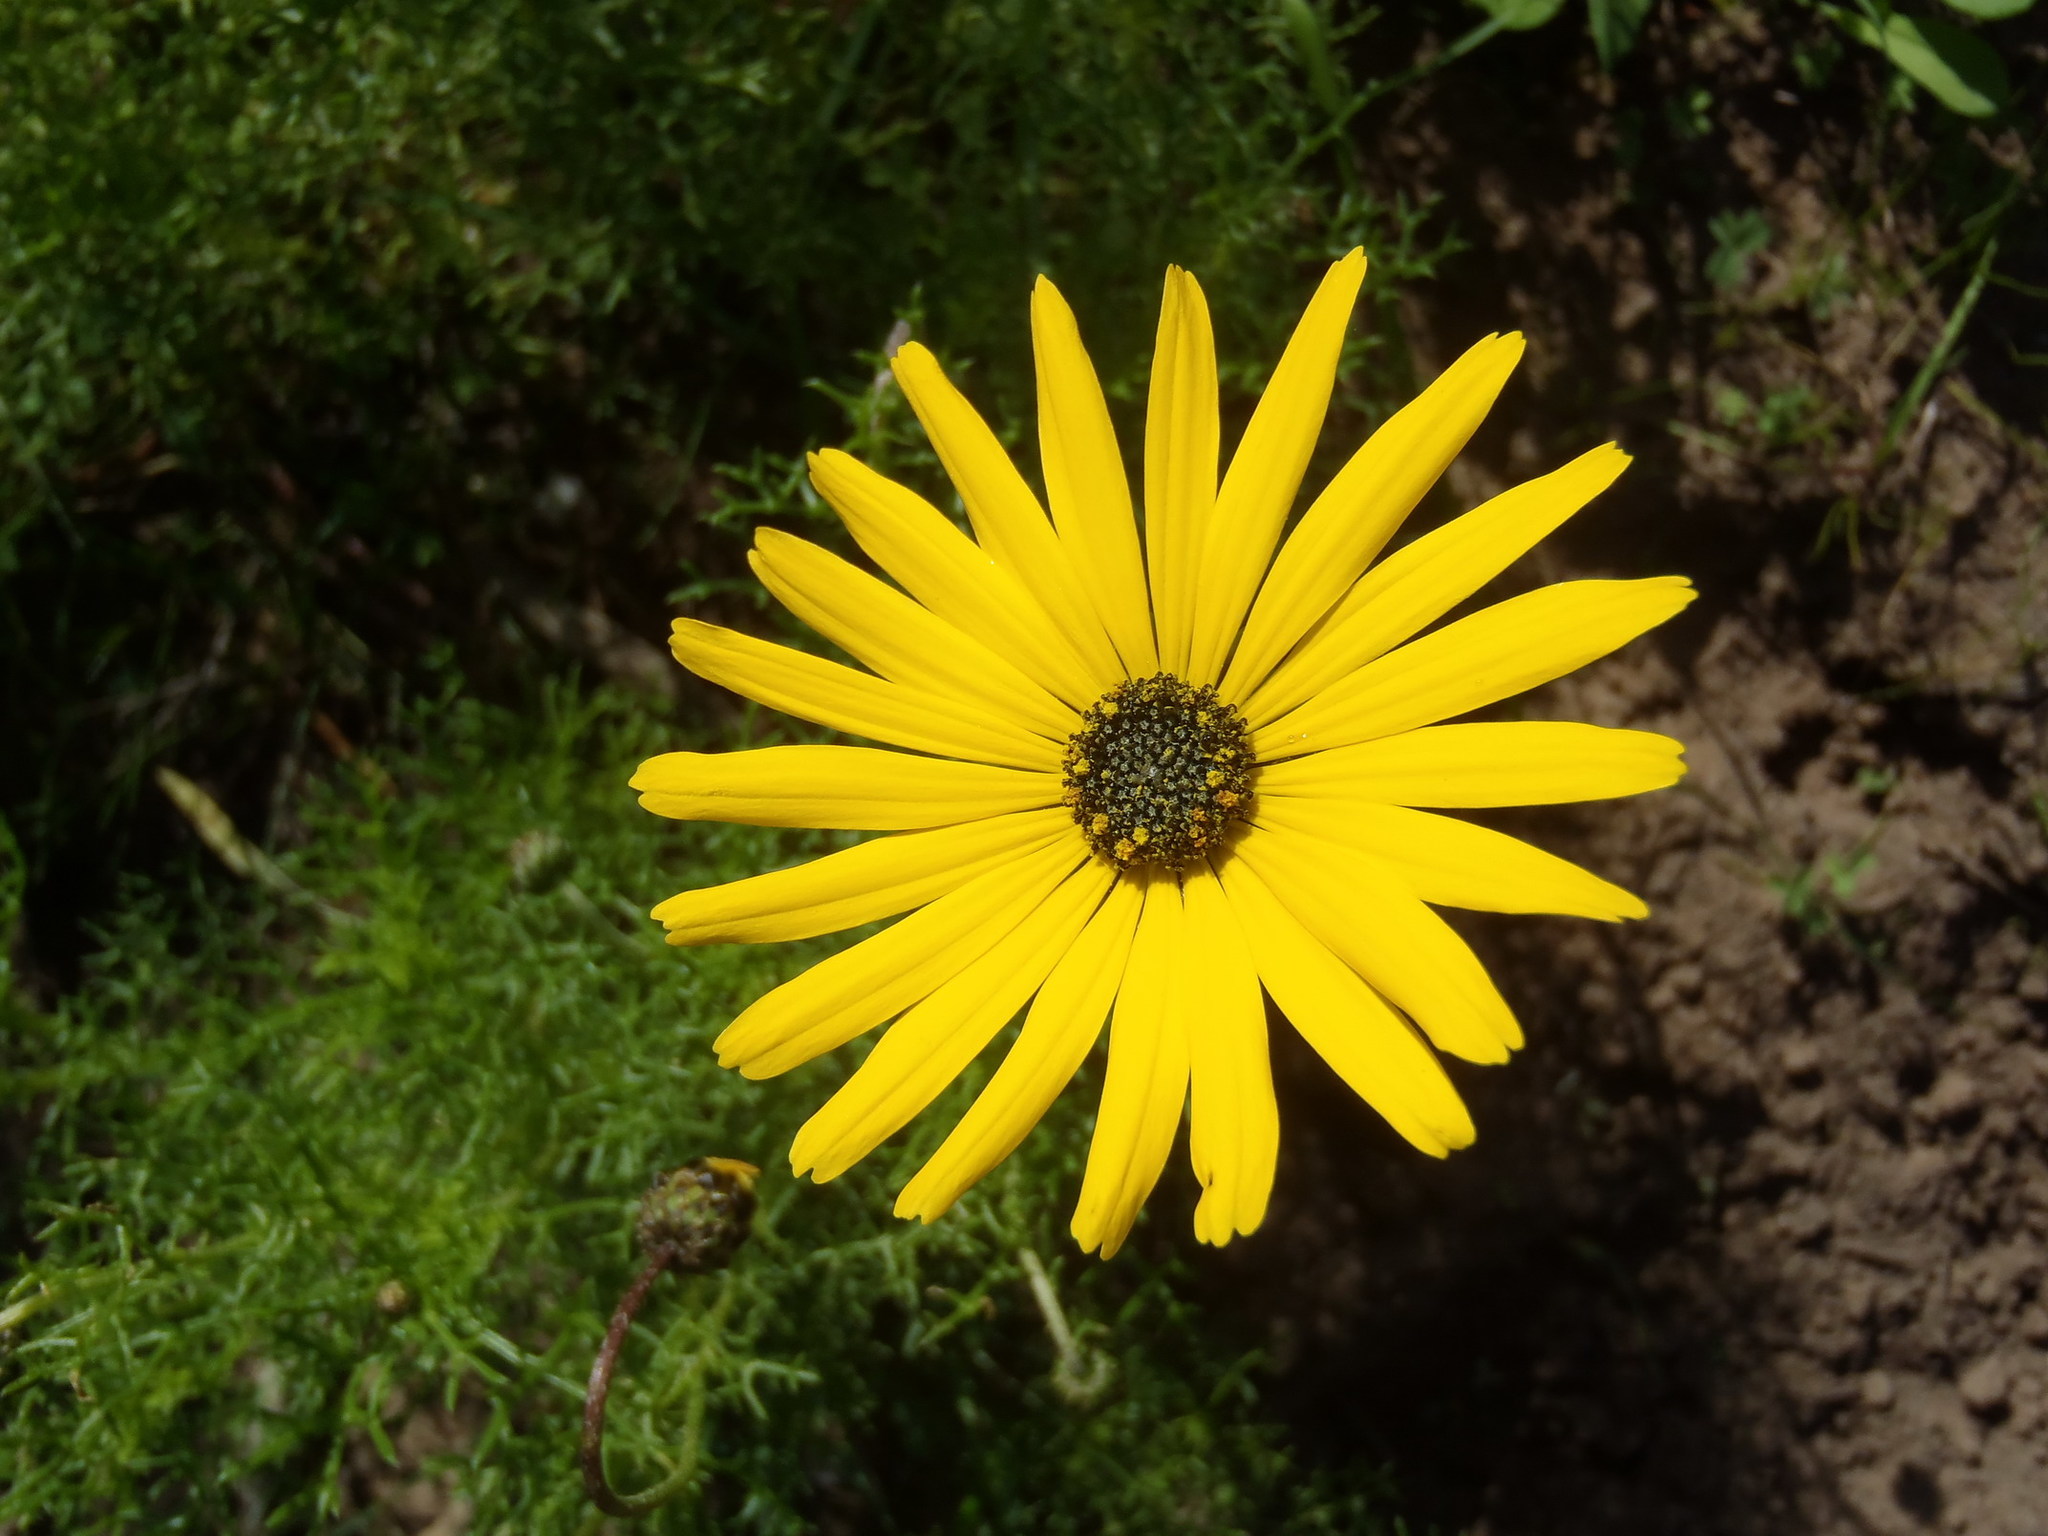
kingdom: Plantae
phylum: Tracheophyta
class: Magnoliopsida
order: Asterales
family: Asteraceae
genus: Ursinia
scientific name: Ursinia chrysanthemoides
